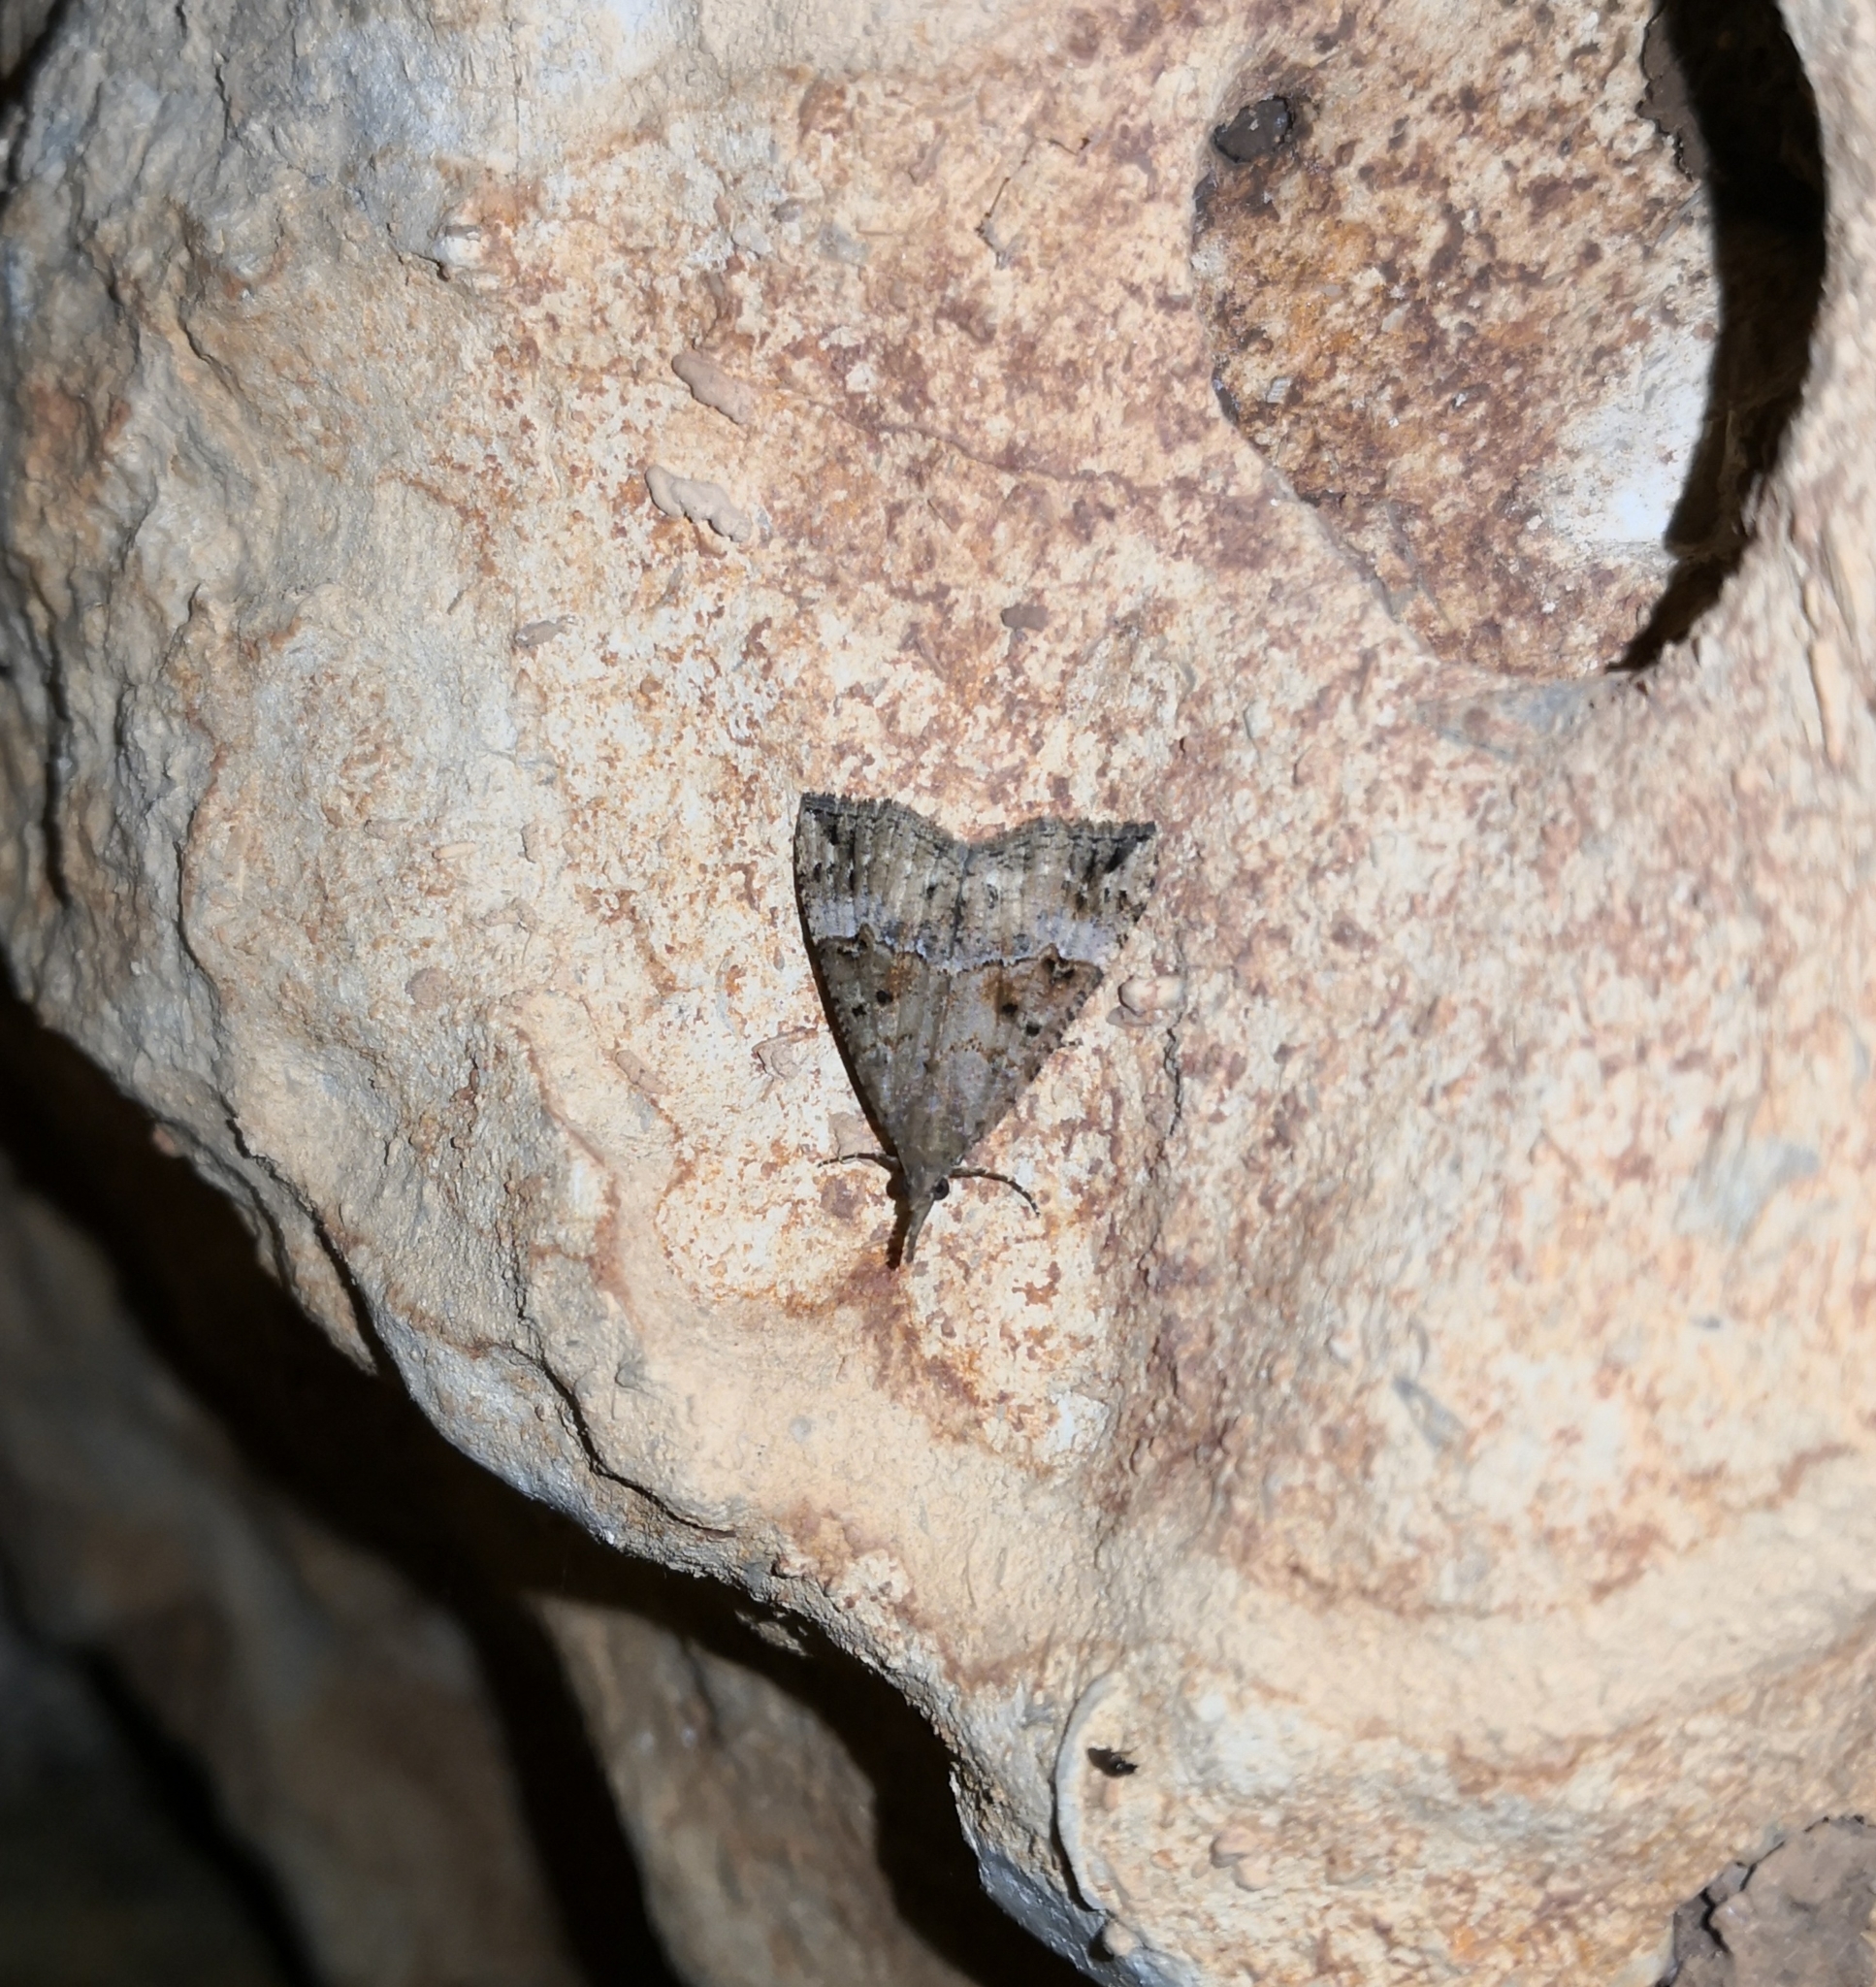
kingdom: Animalia
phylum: Arthropoda
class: Insecta
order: Lepidoptera
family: Erebidae
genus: Hypena
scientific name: Hypena obsitalis
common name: Bloxworth snout
